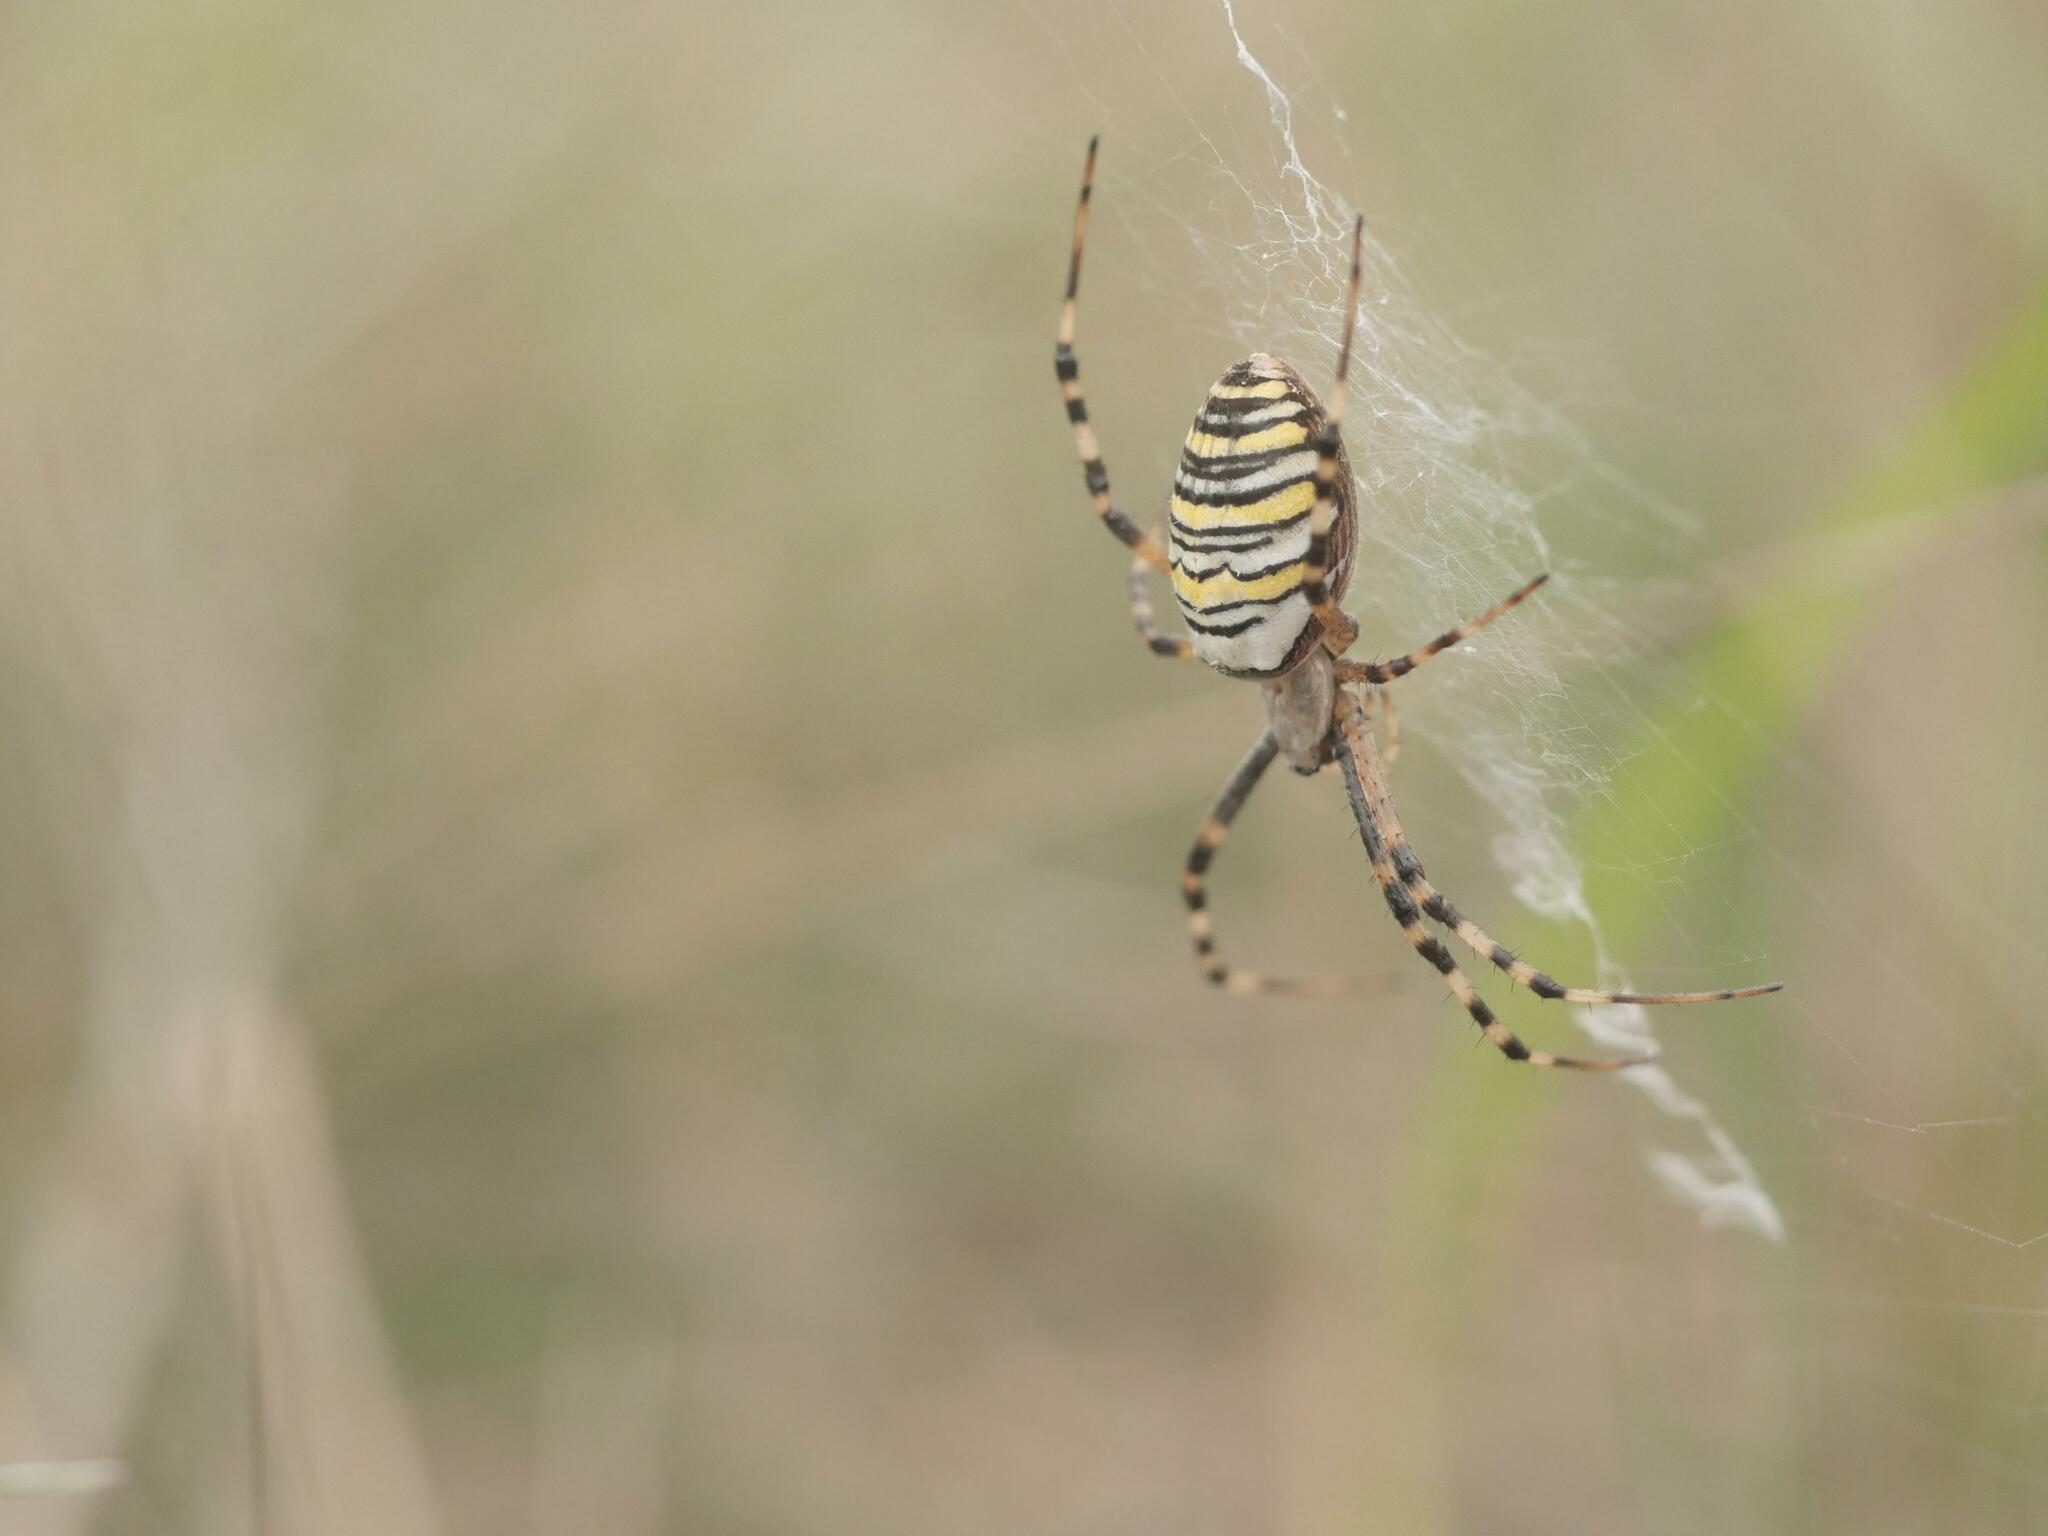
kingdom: Animalia
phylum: Arthropoda
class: Arachnida
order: Araneae
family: Araneidae
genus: Argiope
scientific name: Argiope bruennichi
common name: Wasp spider
